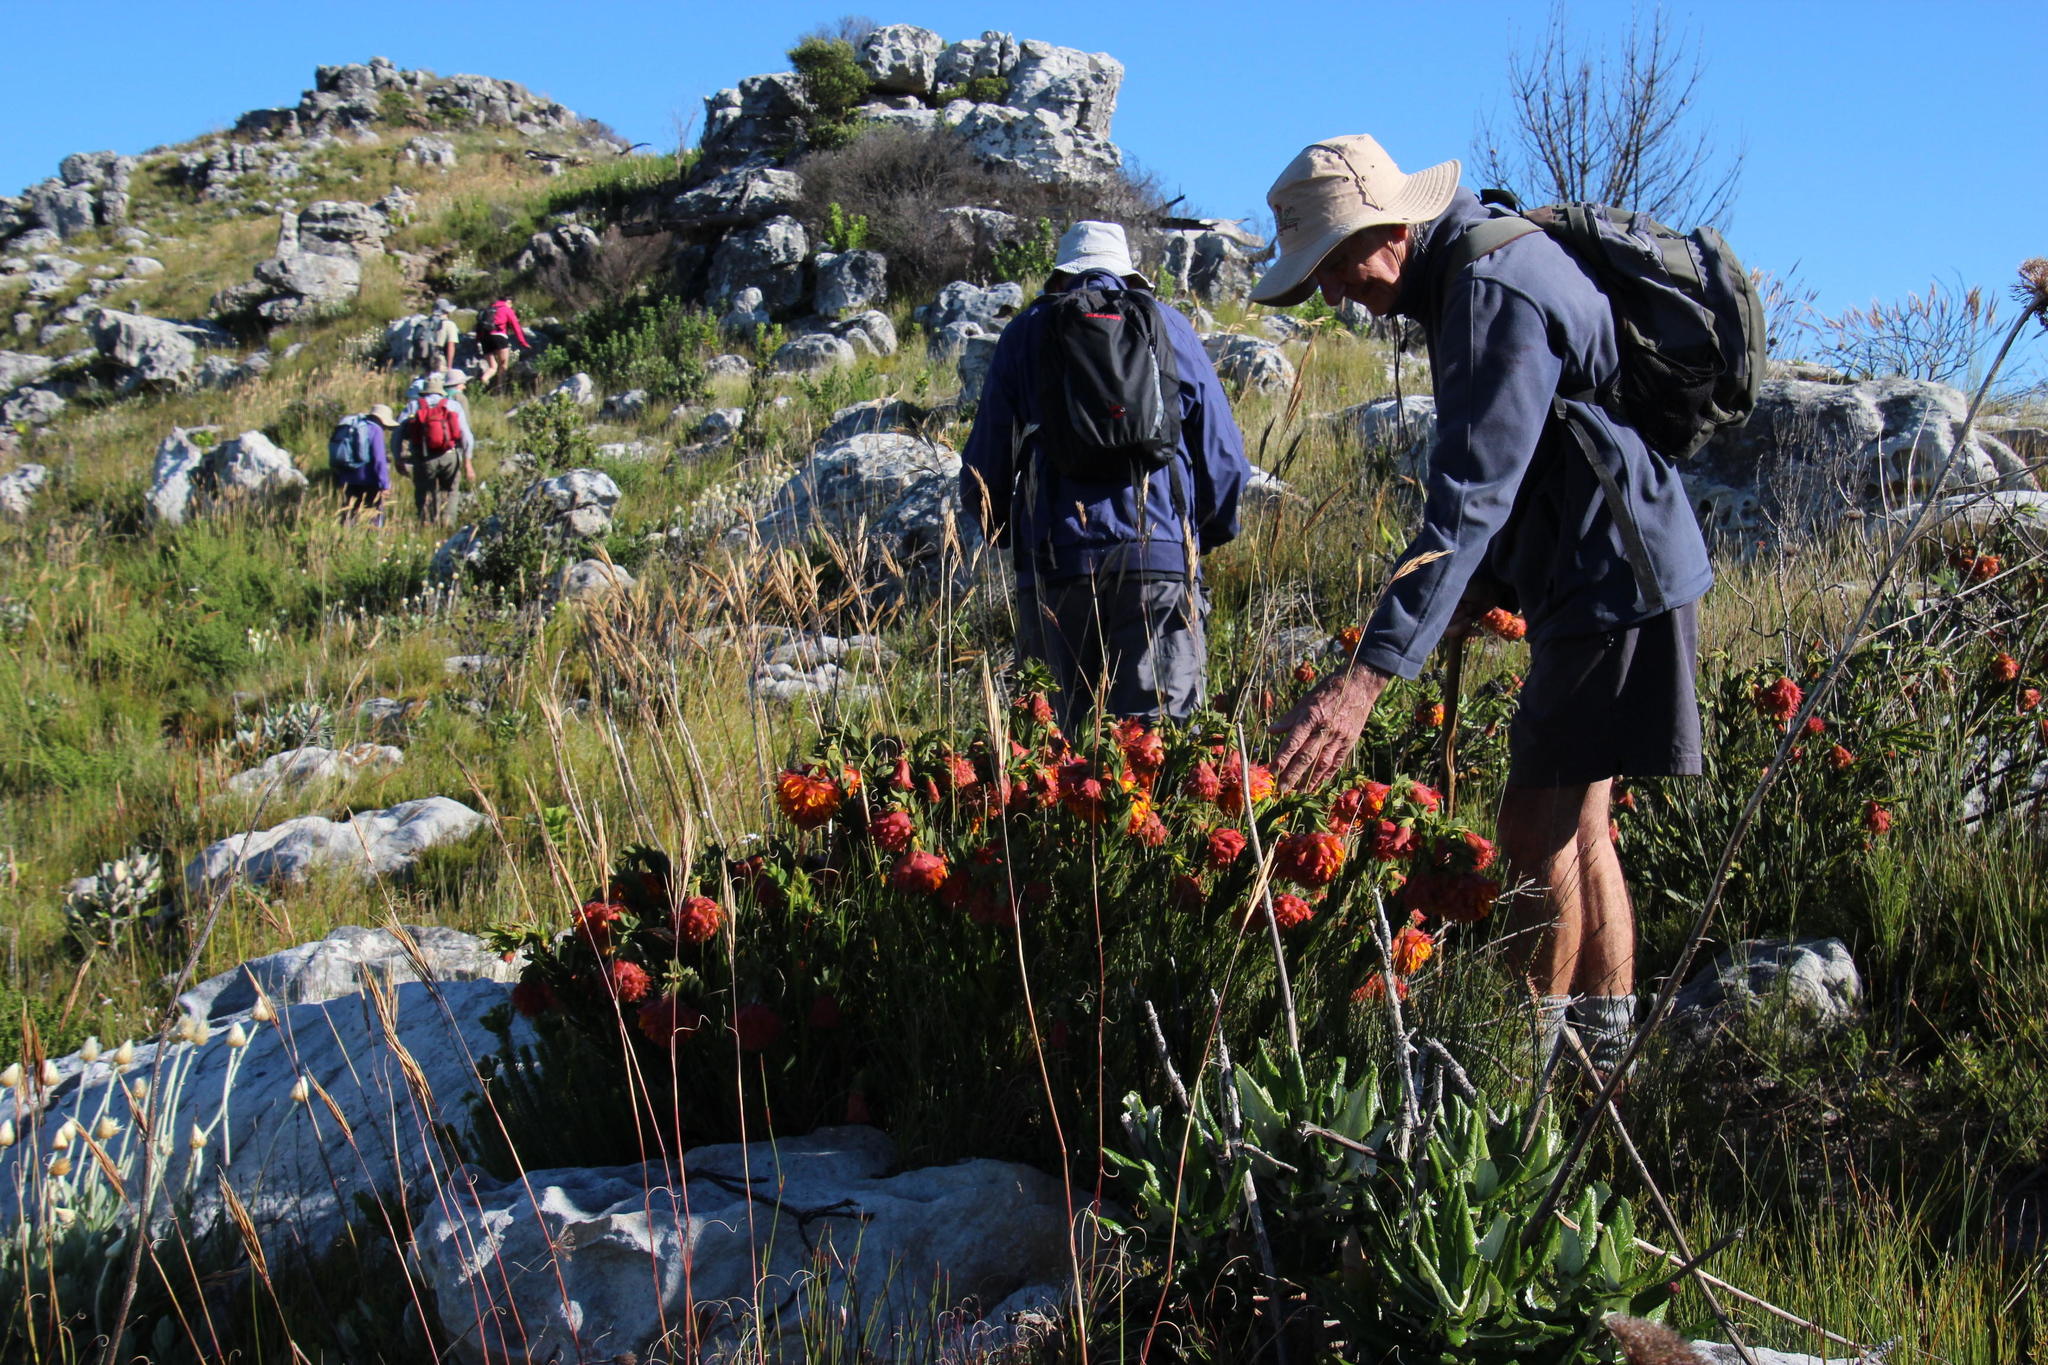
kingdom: Plantae
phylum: Tracheophyta
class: Magnoliopsida
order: Fabales
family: Fabaceae
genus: Liparia
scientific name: Liparia splendens
